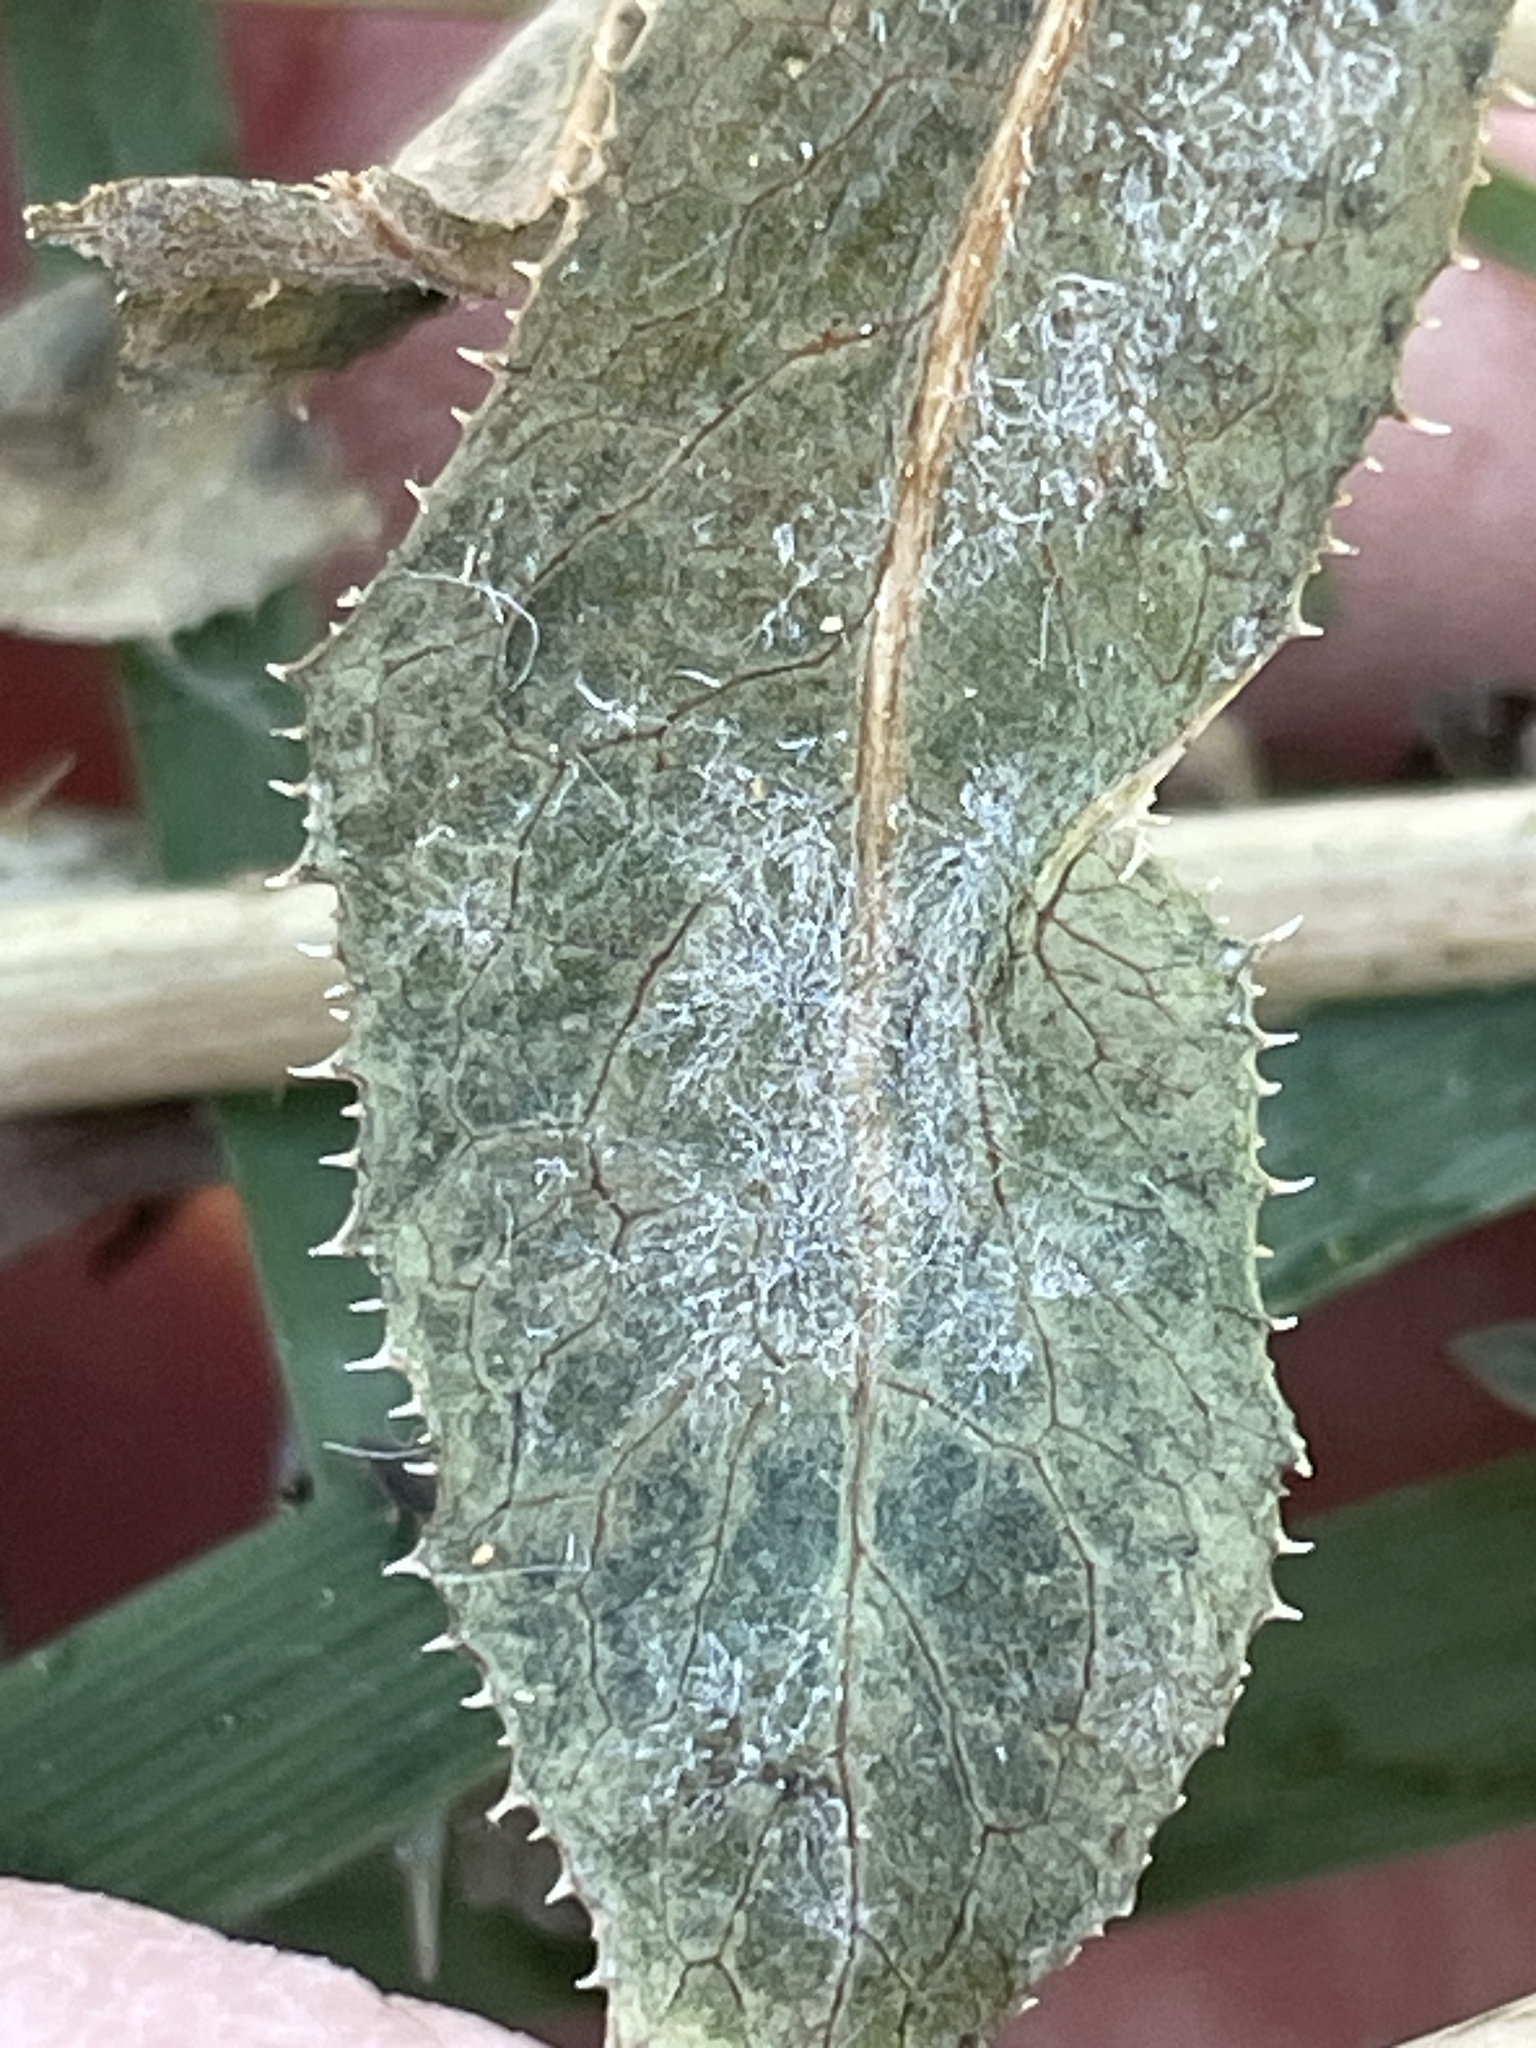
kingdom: Fungi
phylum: Ascomycota
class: Leotiomycetes
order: Helotiales
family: Erysiphaceae
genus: Golovinomyces
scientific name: Golovinomyces bolayi
